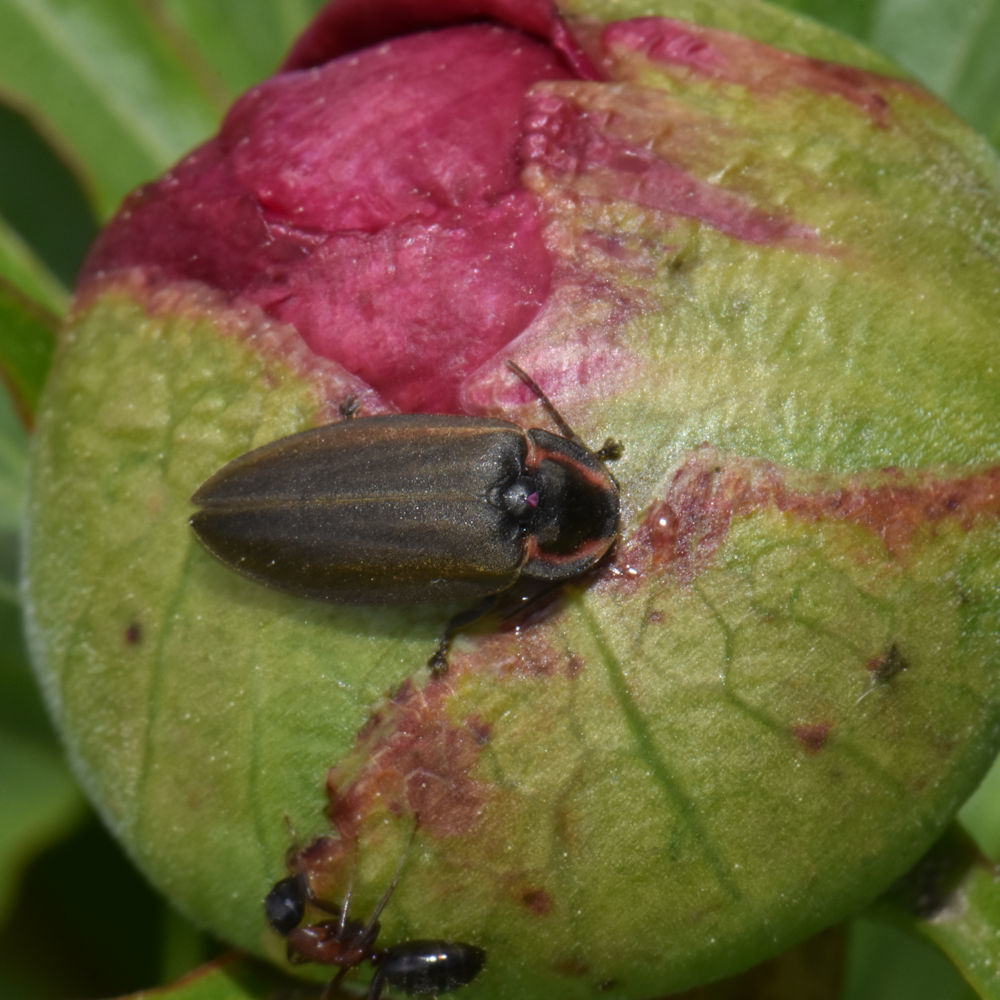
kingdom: Animalia
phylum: Arthropoda
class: Insecta
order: Coleoptera
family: Lampyridae
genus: Photinus
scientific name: Photinus corrusca
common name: Winter firefly
